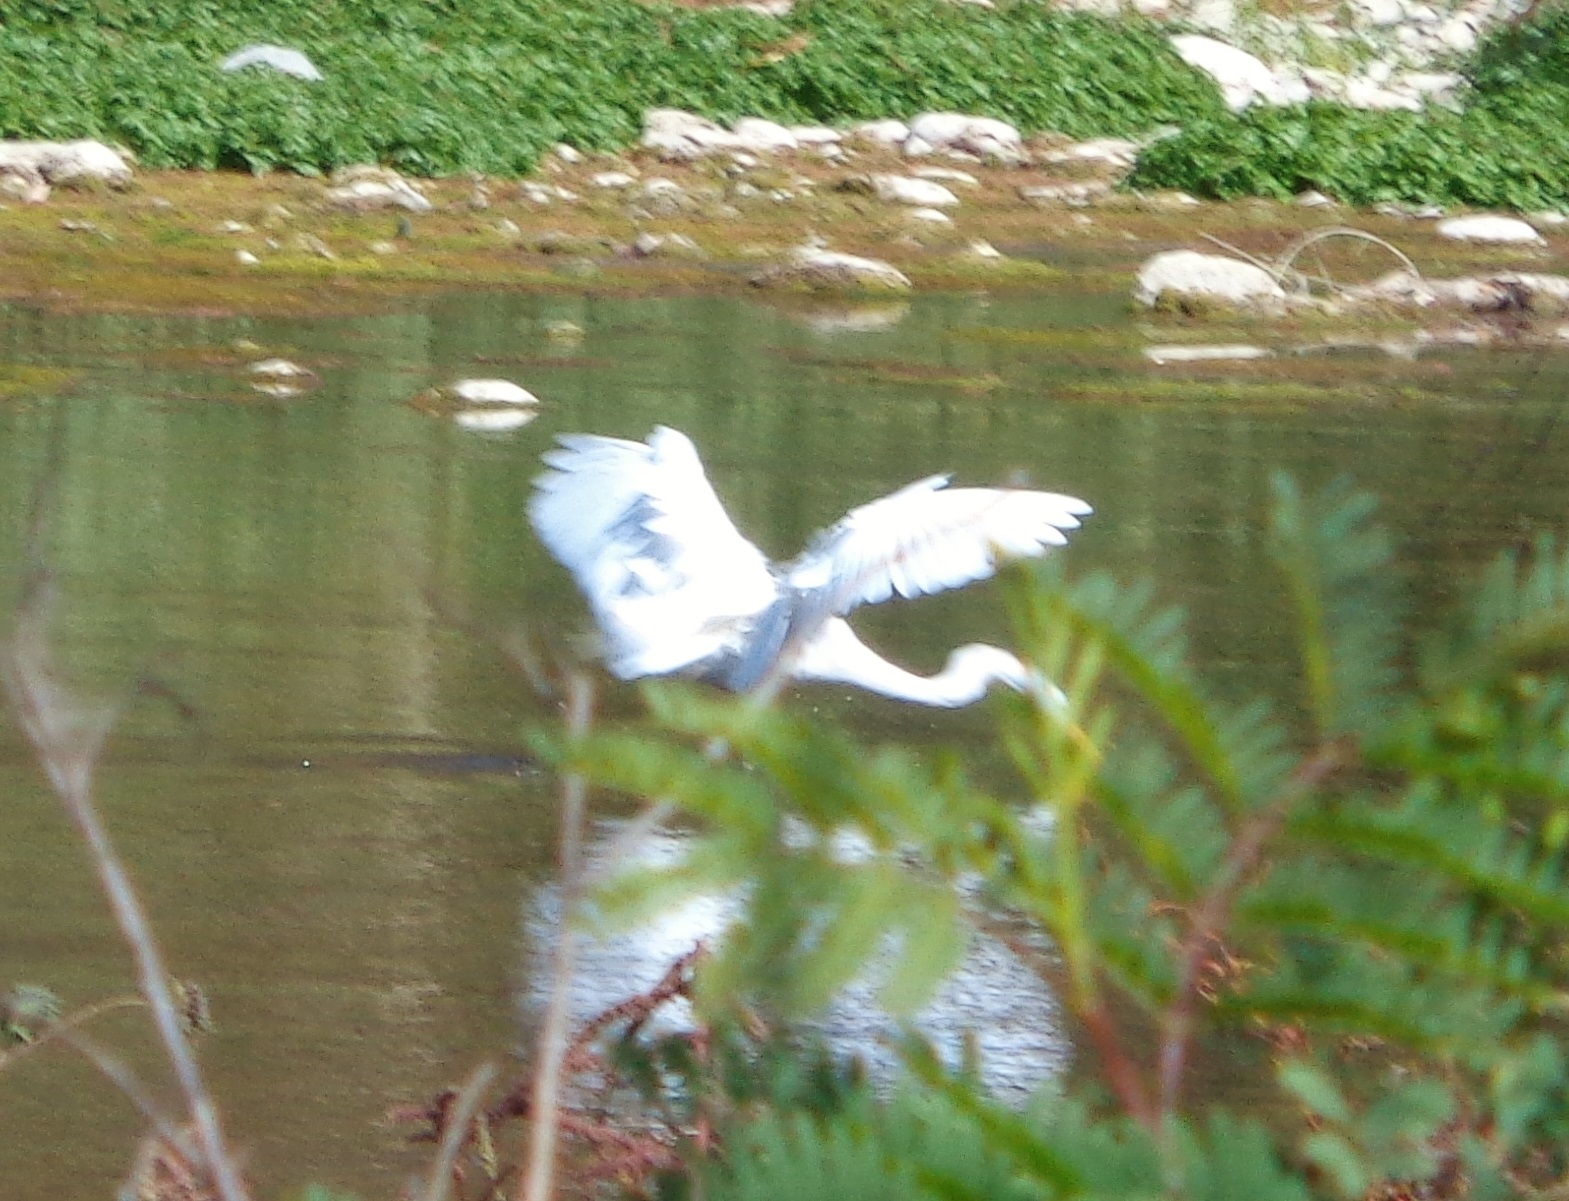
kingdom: Animalia
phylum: Chordata
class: Aves
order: Pelecaniformes
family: Ardeidae
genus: Ardea
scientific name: Ardea alba
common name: Great egret
